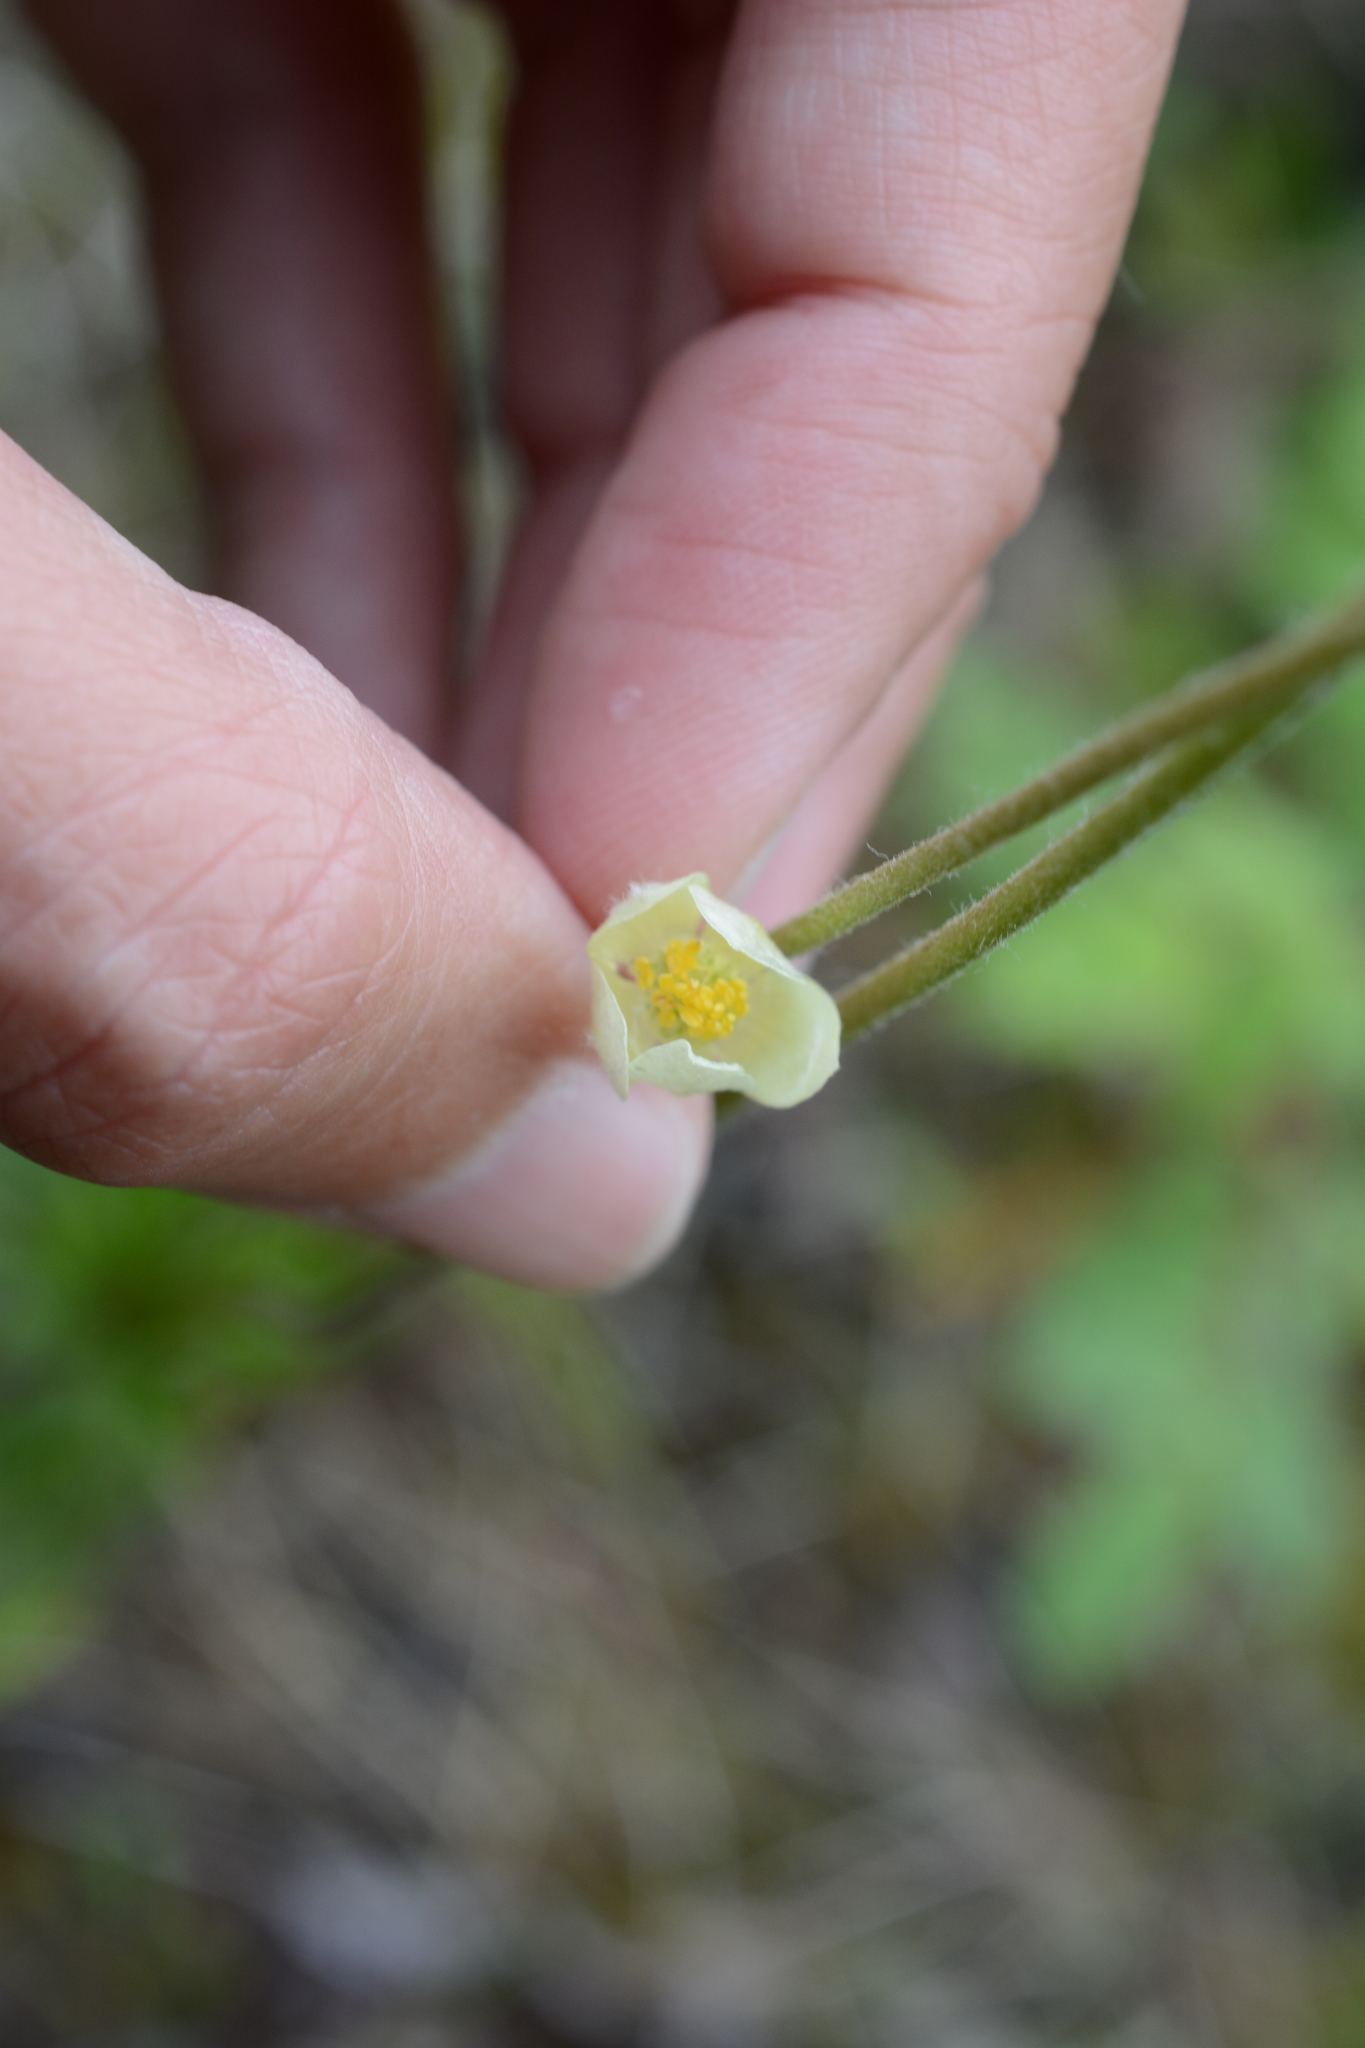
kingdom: Plantae
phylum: Tracheophyta
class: Magnoliopsida
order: Ranunculales
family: Ranunculaceae
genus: Anemone
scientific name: Anemone multifida
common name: Bird's-foot anemone
